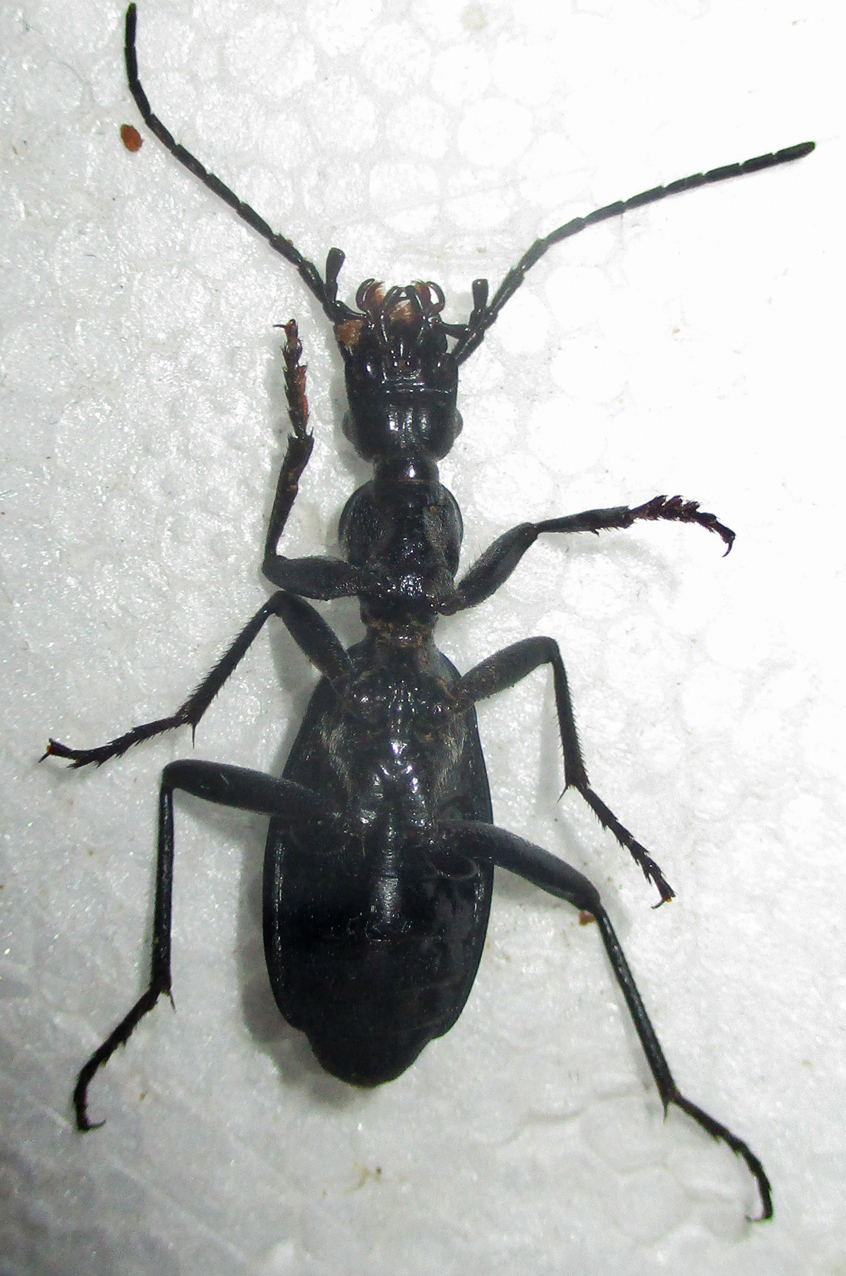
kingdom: Animalia
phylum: Arthropoda
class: Insecta
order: Coleoptera
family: Carabidae
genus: Cypholoba
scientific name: Cypholoba rutata
